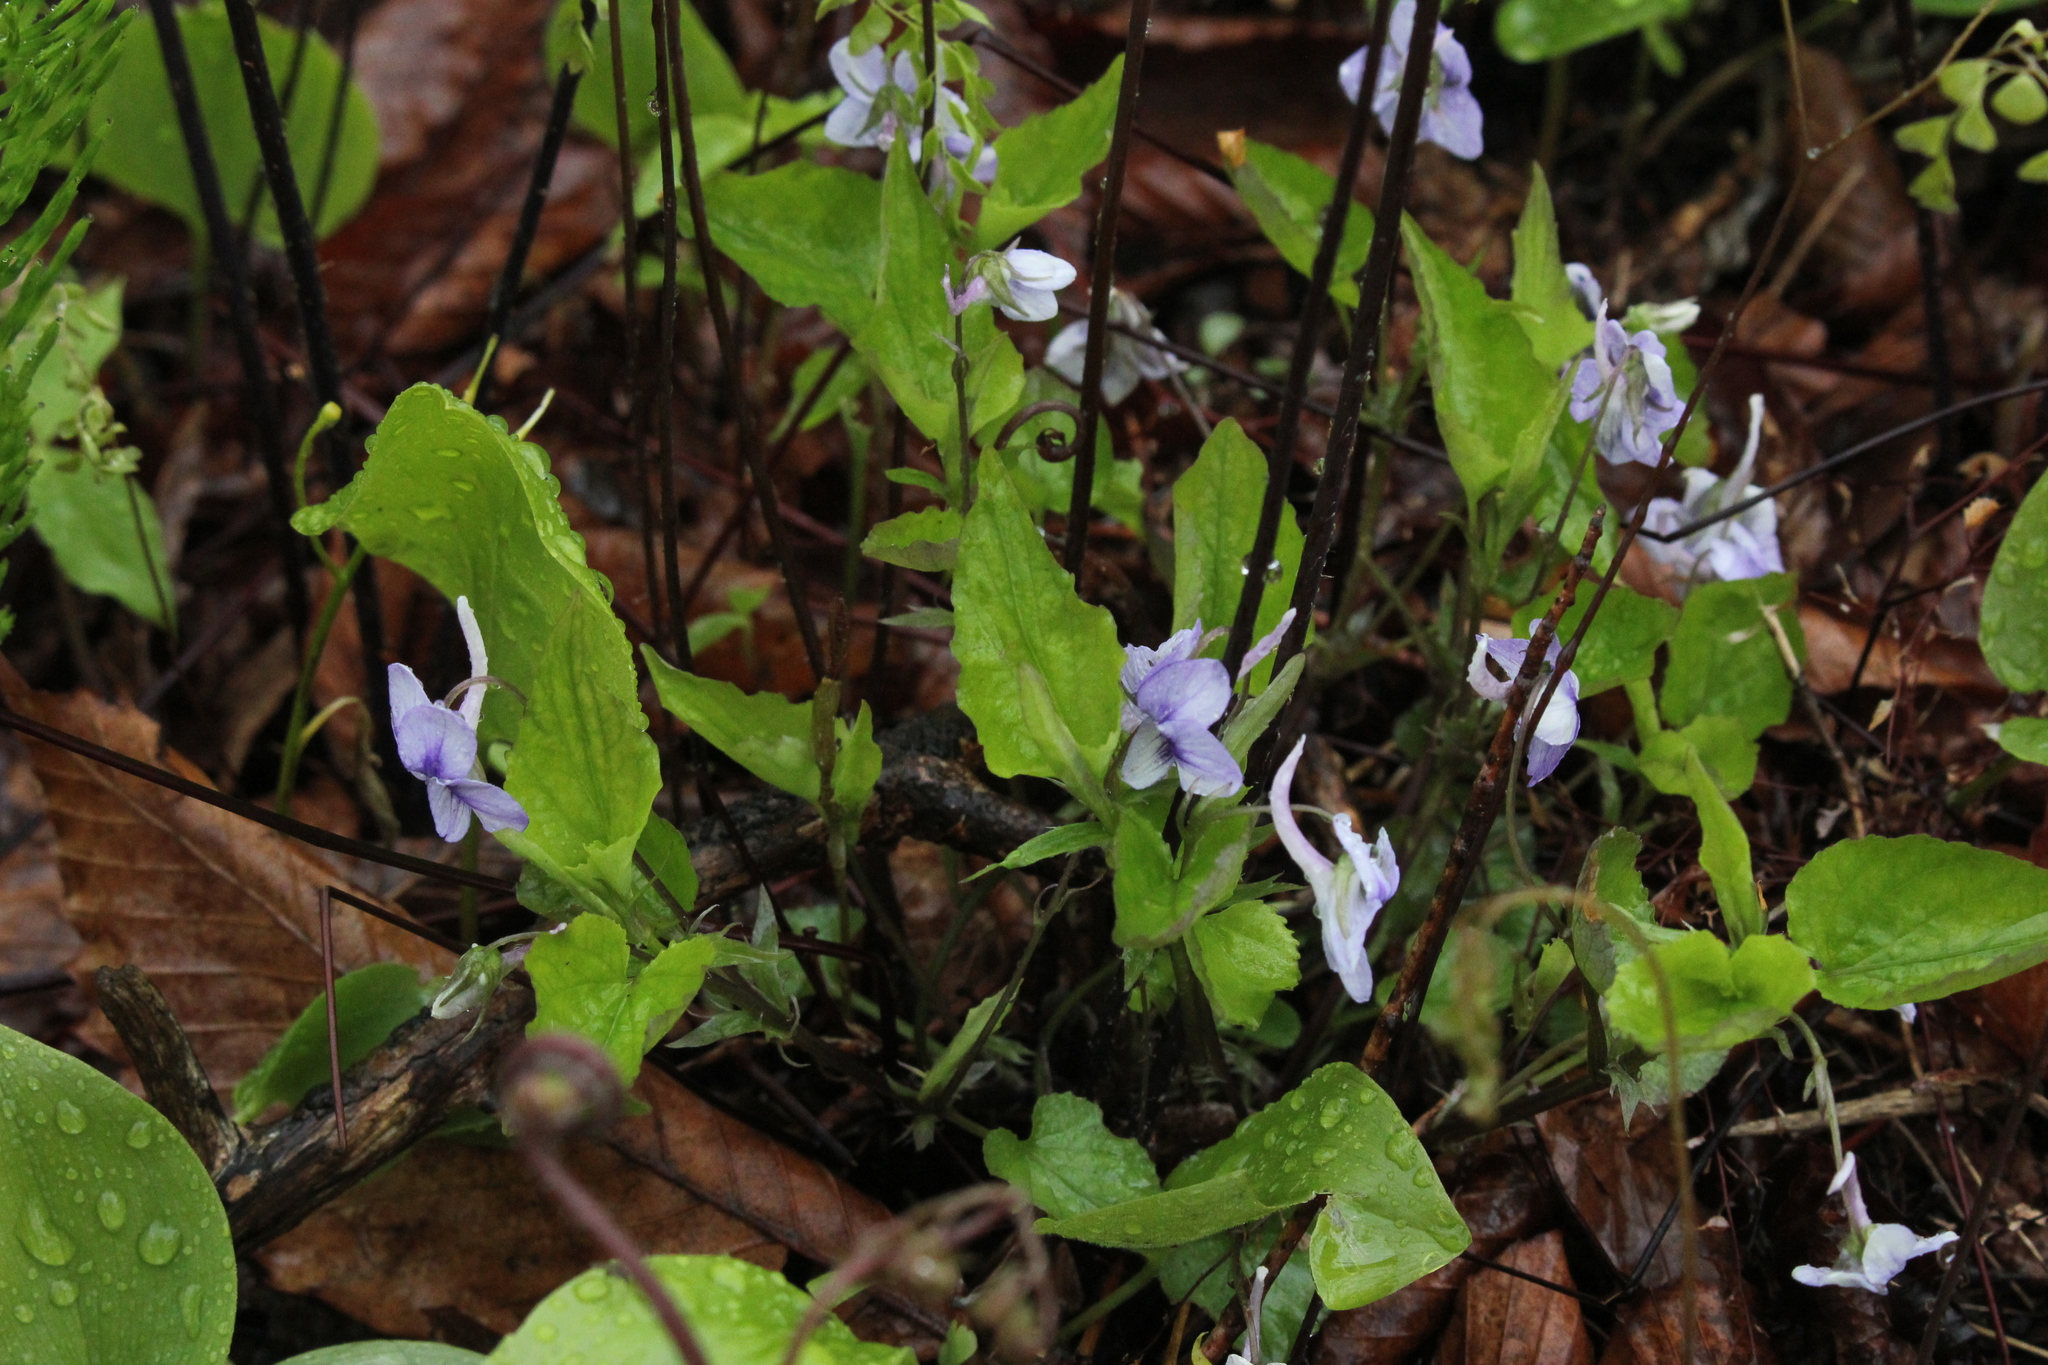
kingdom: Plantae
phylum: Tracheophyta
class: Magnoliopsida
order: Malpighiales
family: Violaceae
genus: Viola
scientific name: Viola rostrata
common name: Long-spur violet
